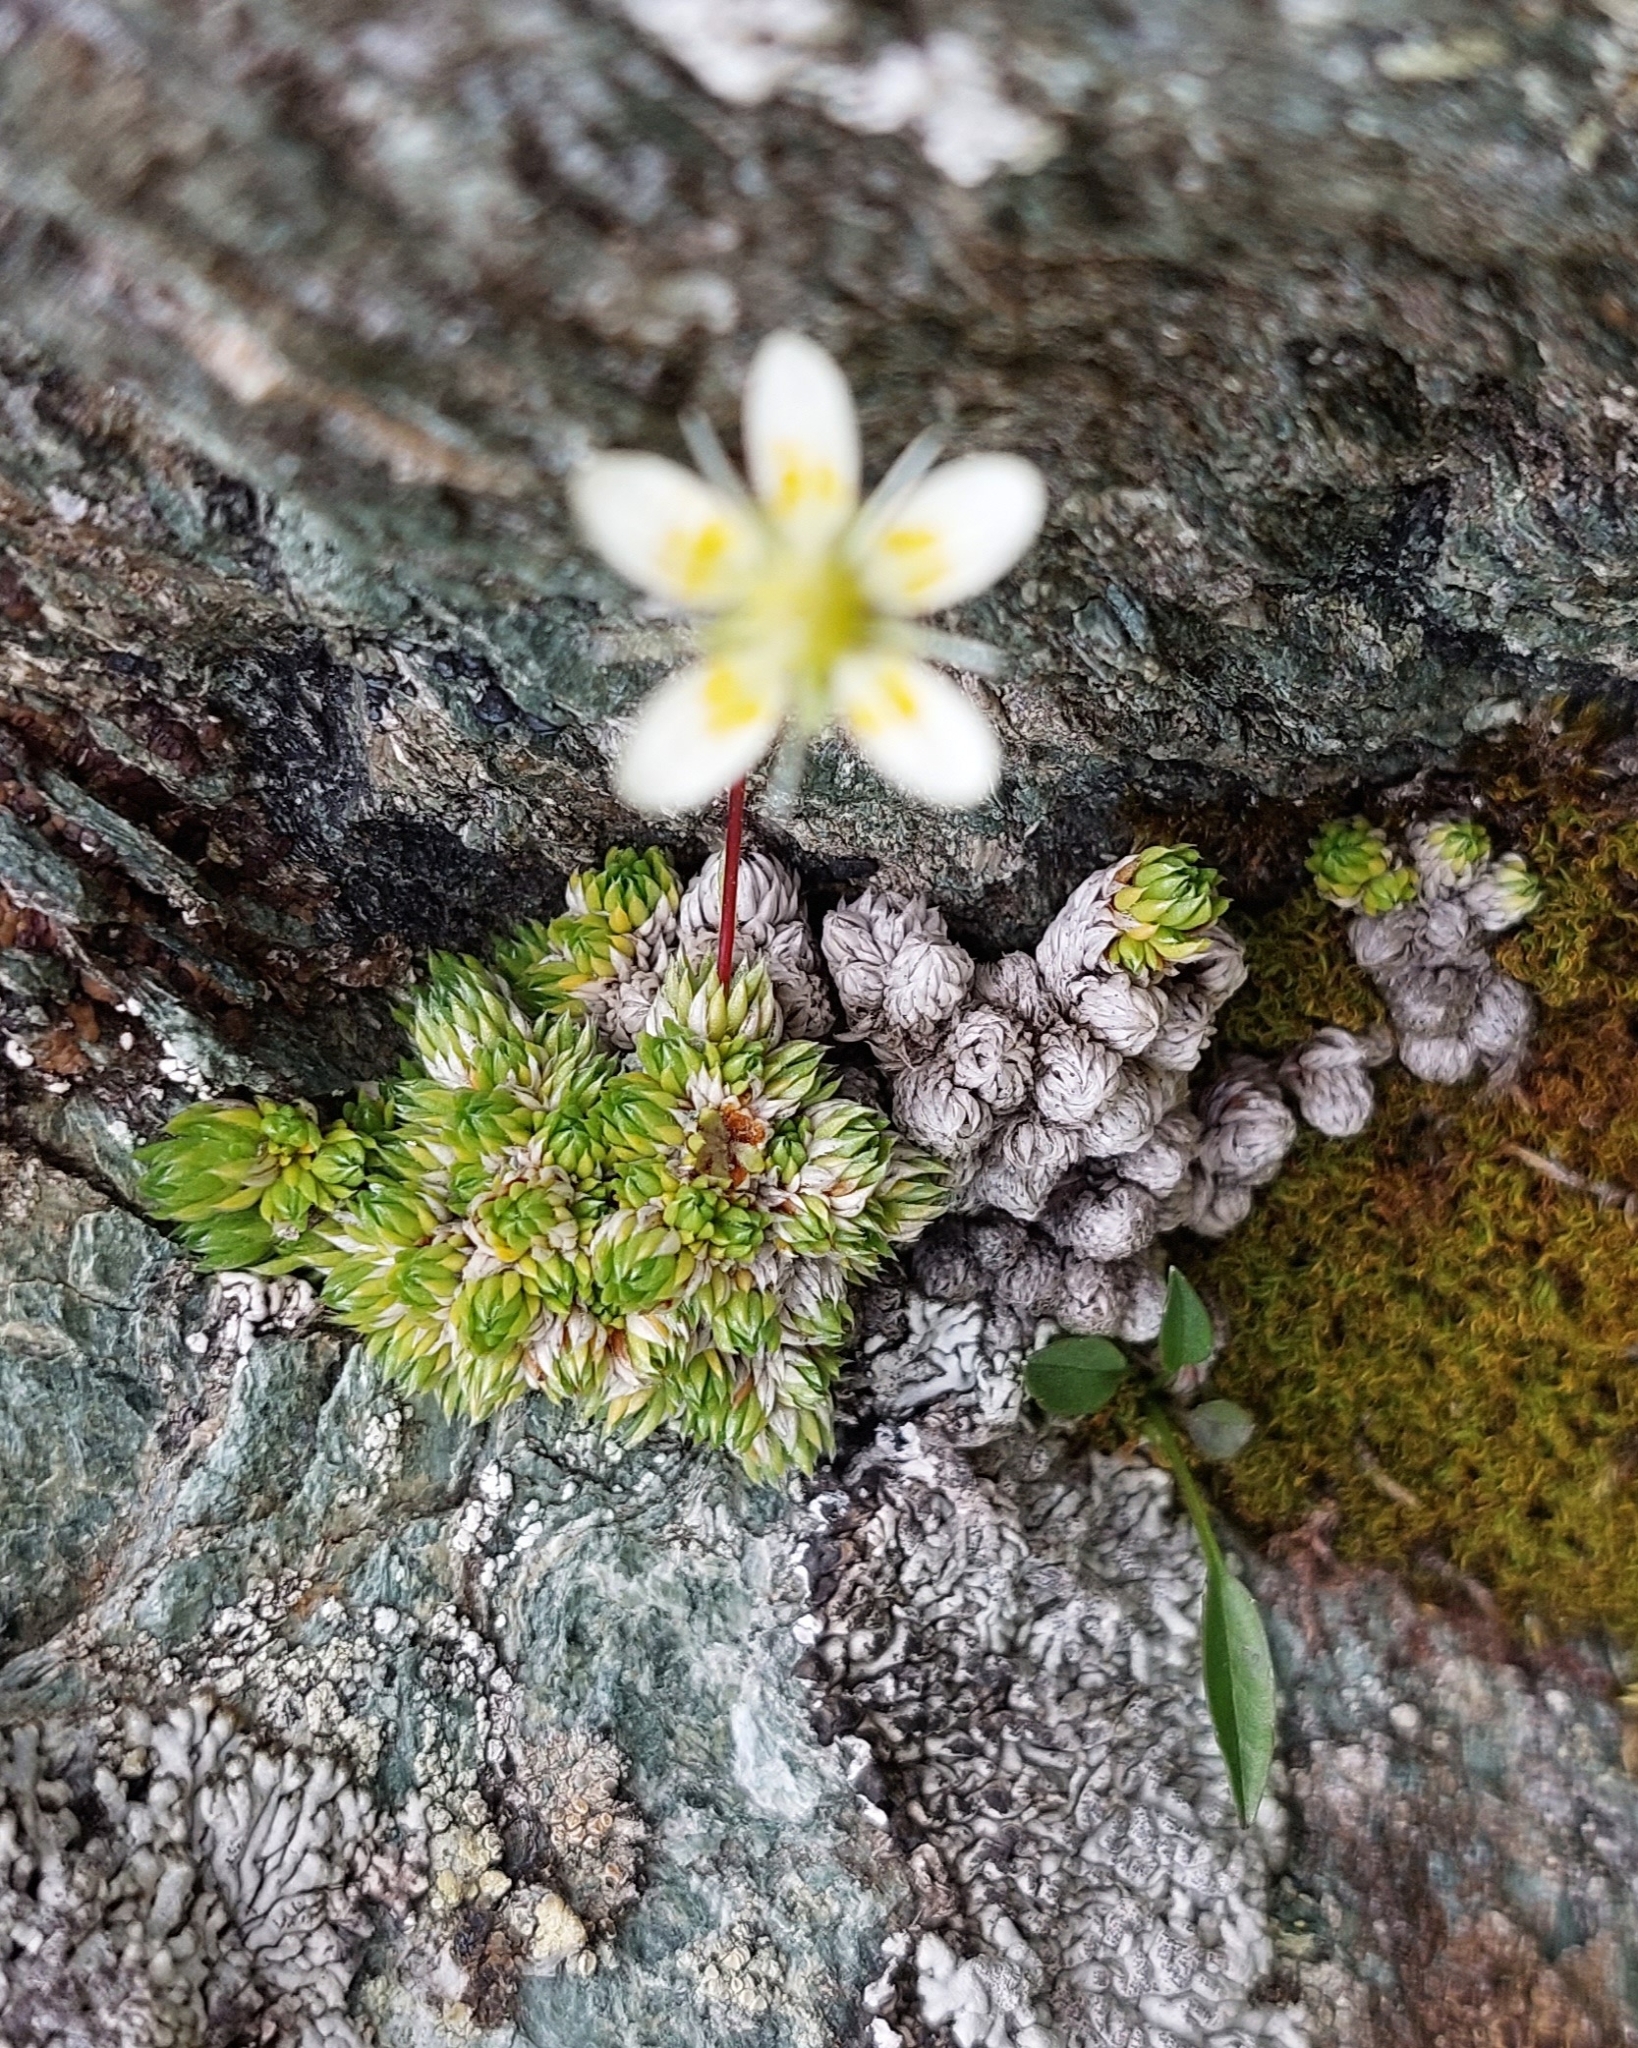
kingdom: Plantae
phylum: Tracheophyta
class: Magnoliopsida
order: Saxifragales
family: Saxifragaceae
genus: Saxifraga
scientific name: Saxifraga bryoides
